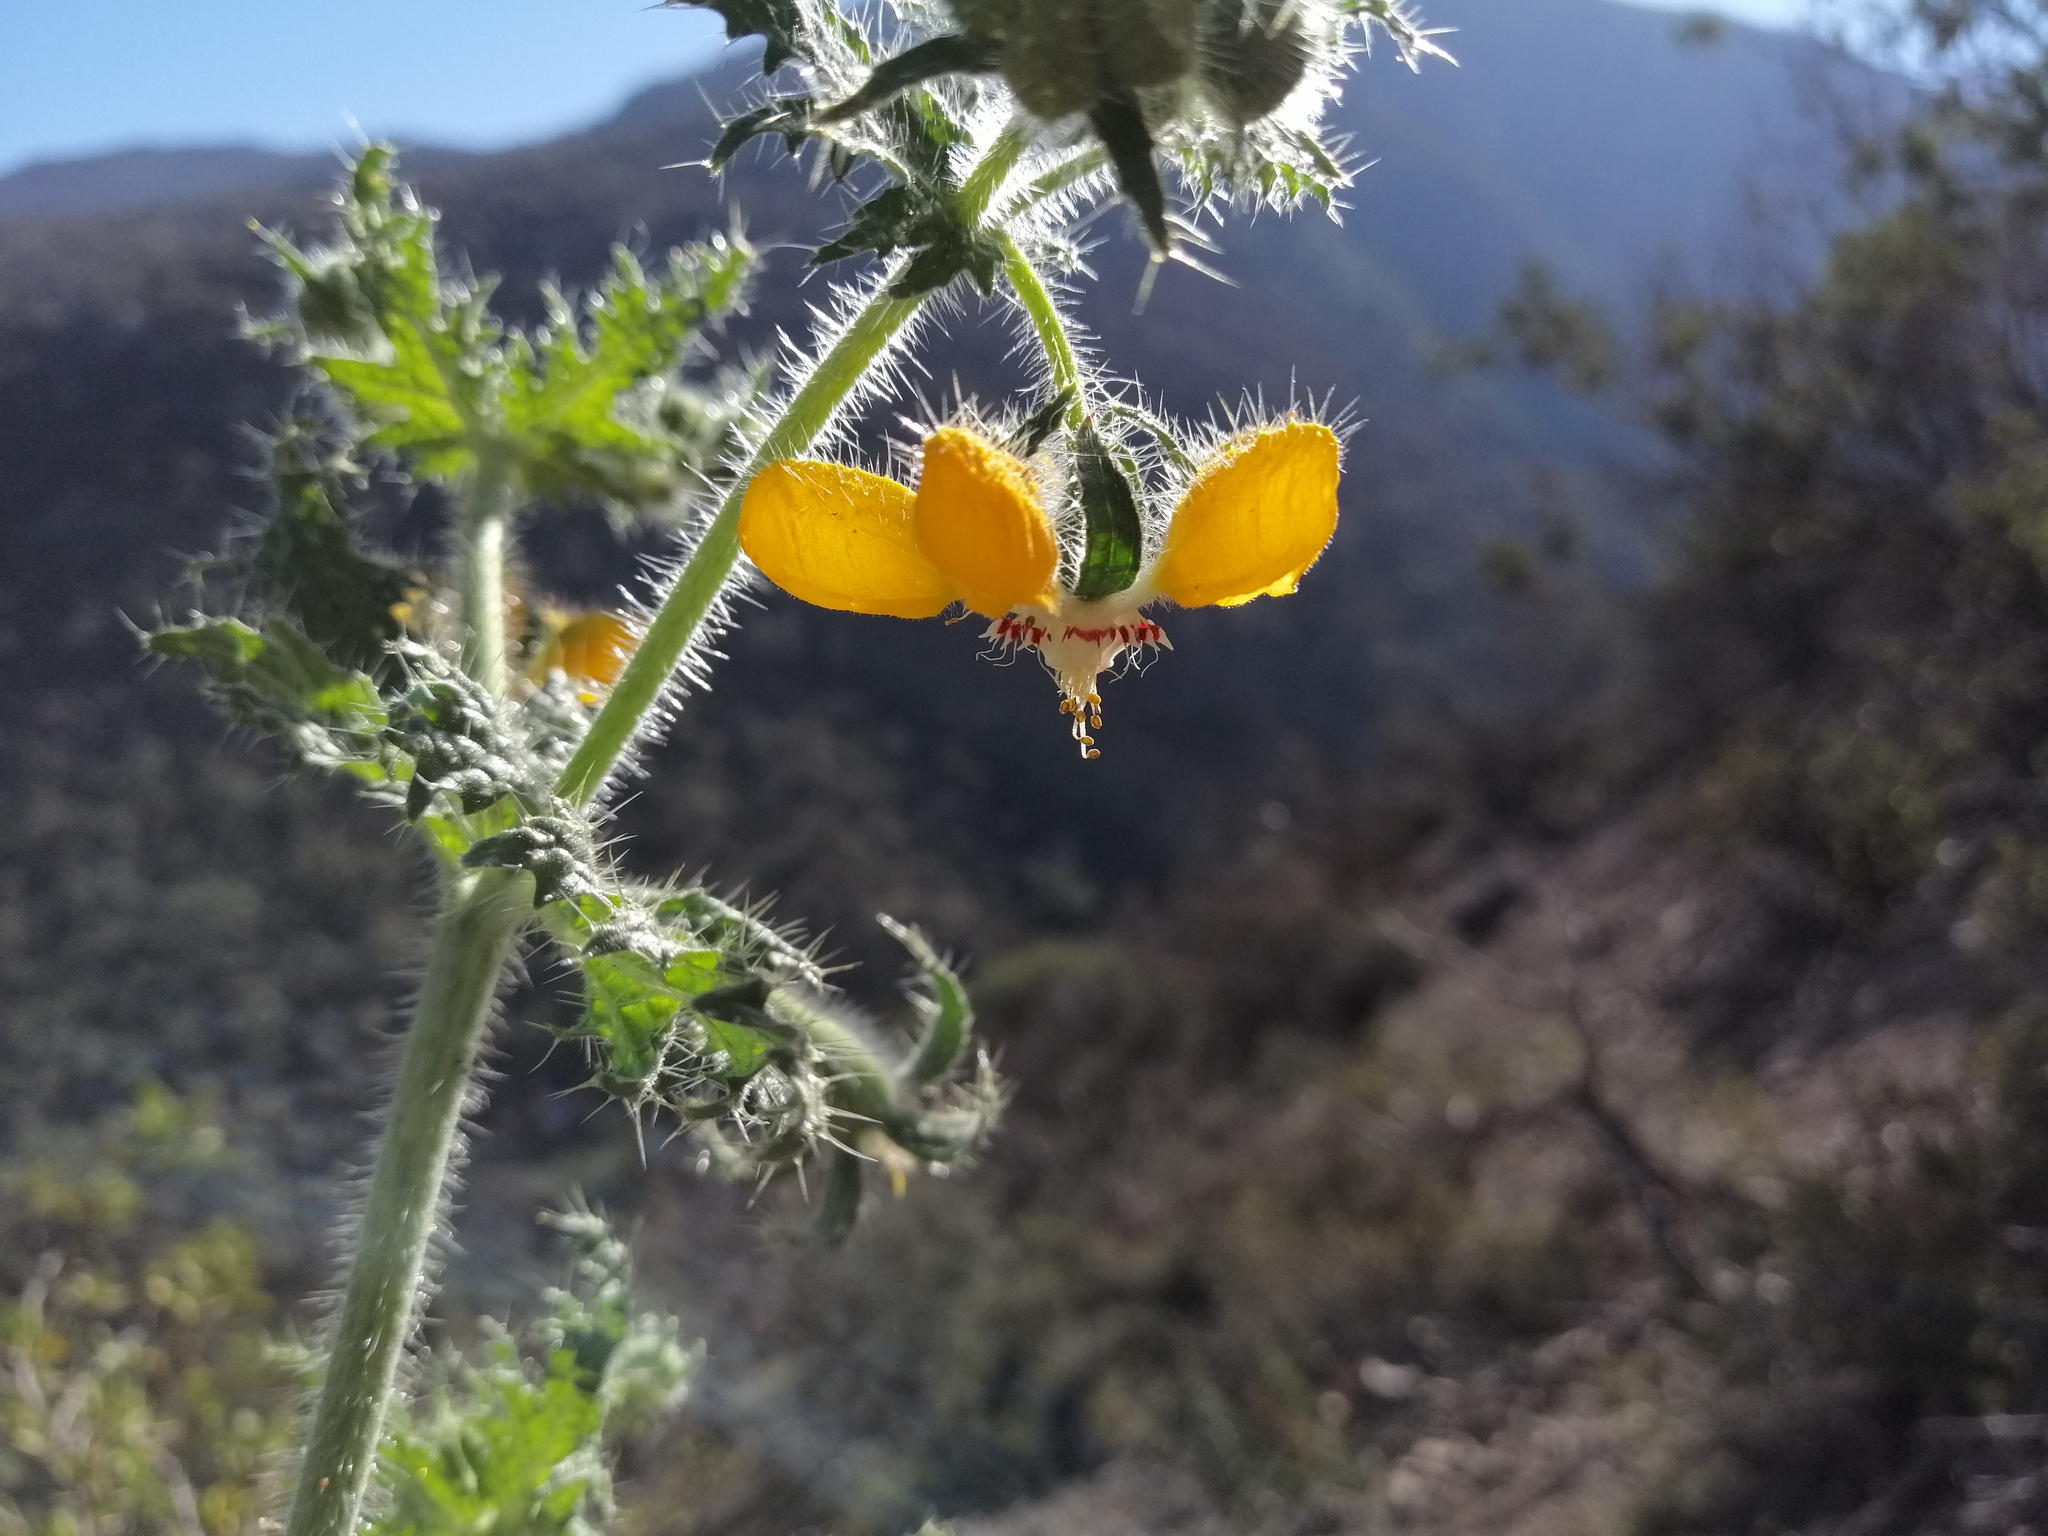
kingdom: Plantae
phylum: Tracheophyta
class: Magnoliopsida
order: Cornales
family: Loasaceae
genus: Loasa
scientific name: Loasa placei
